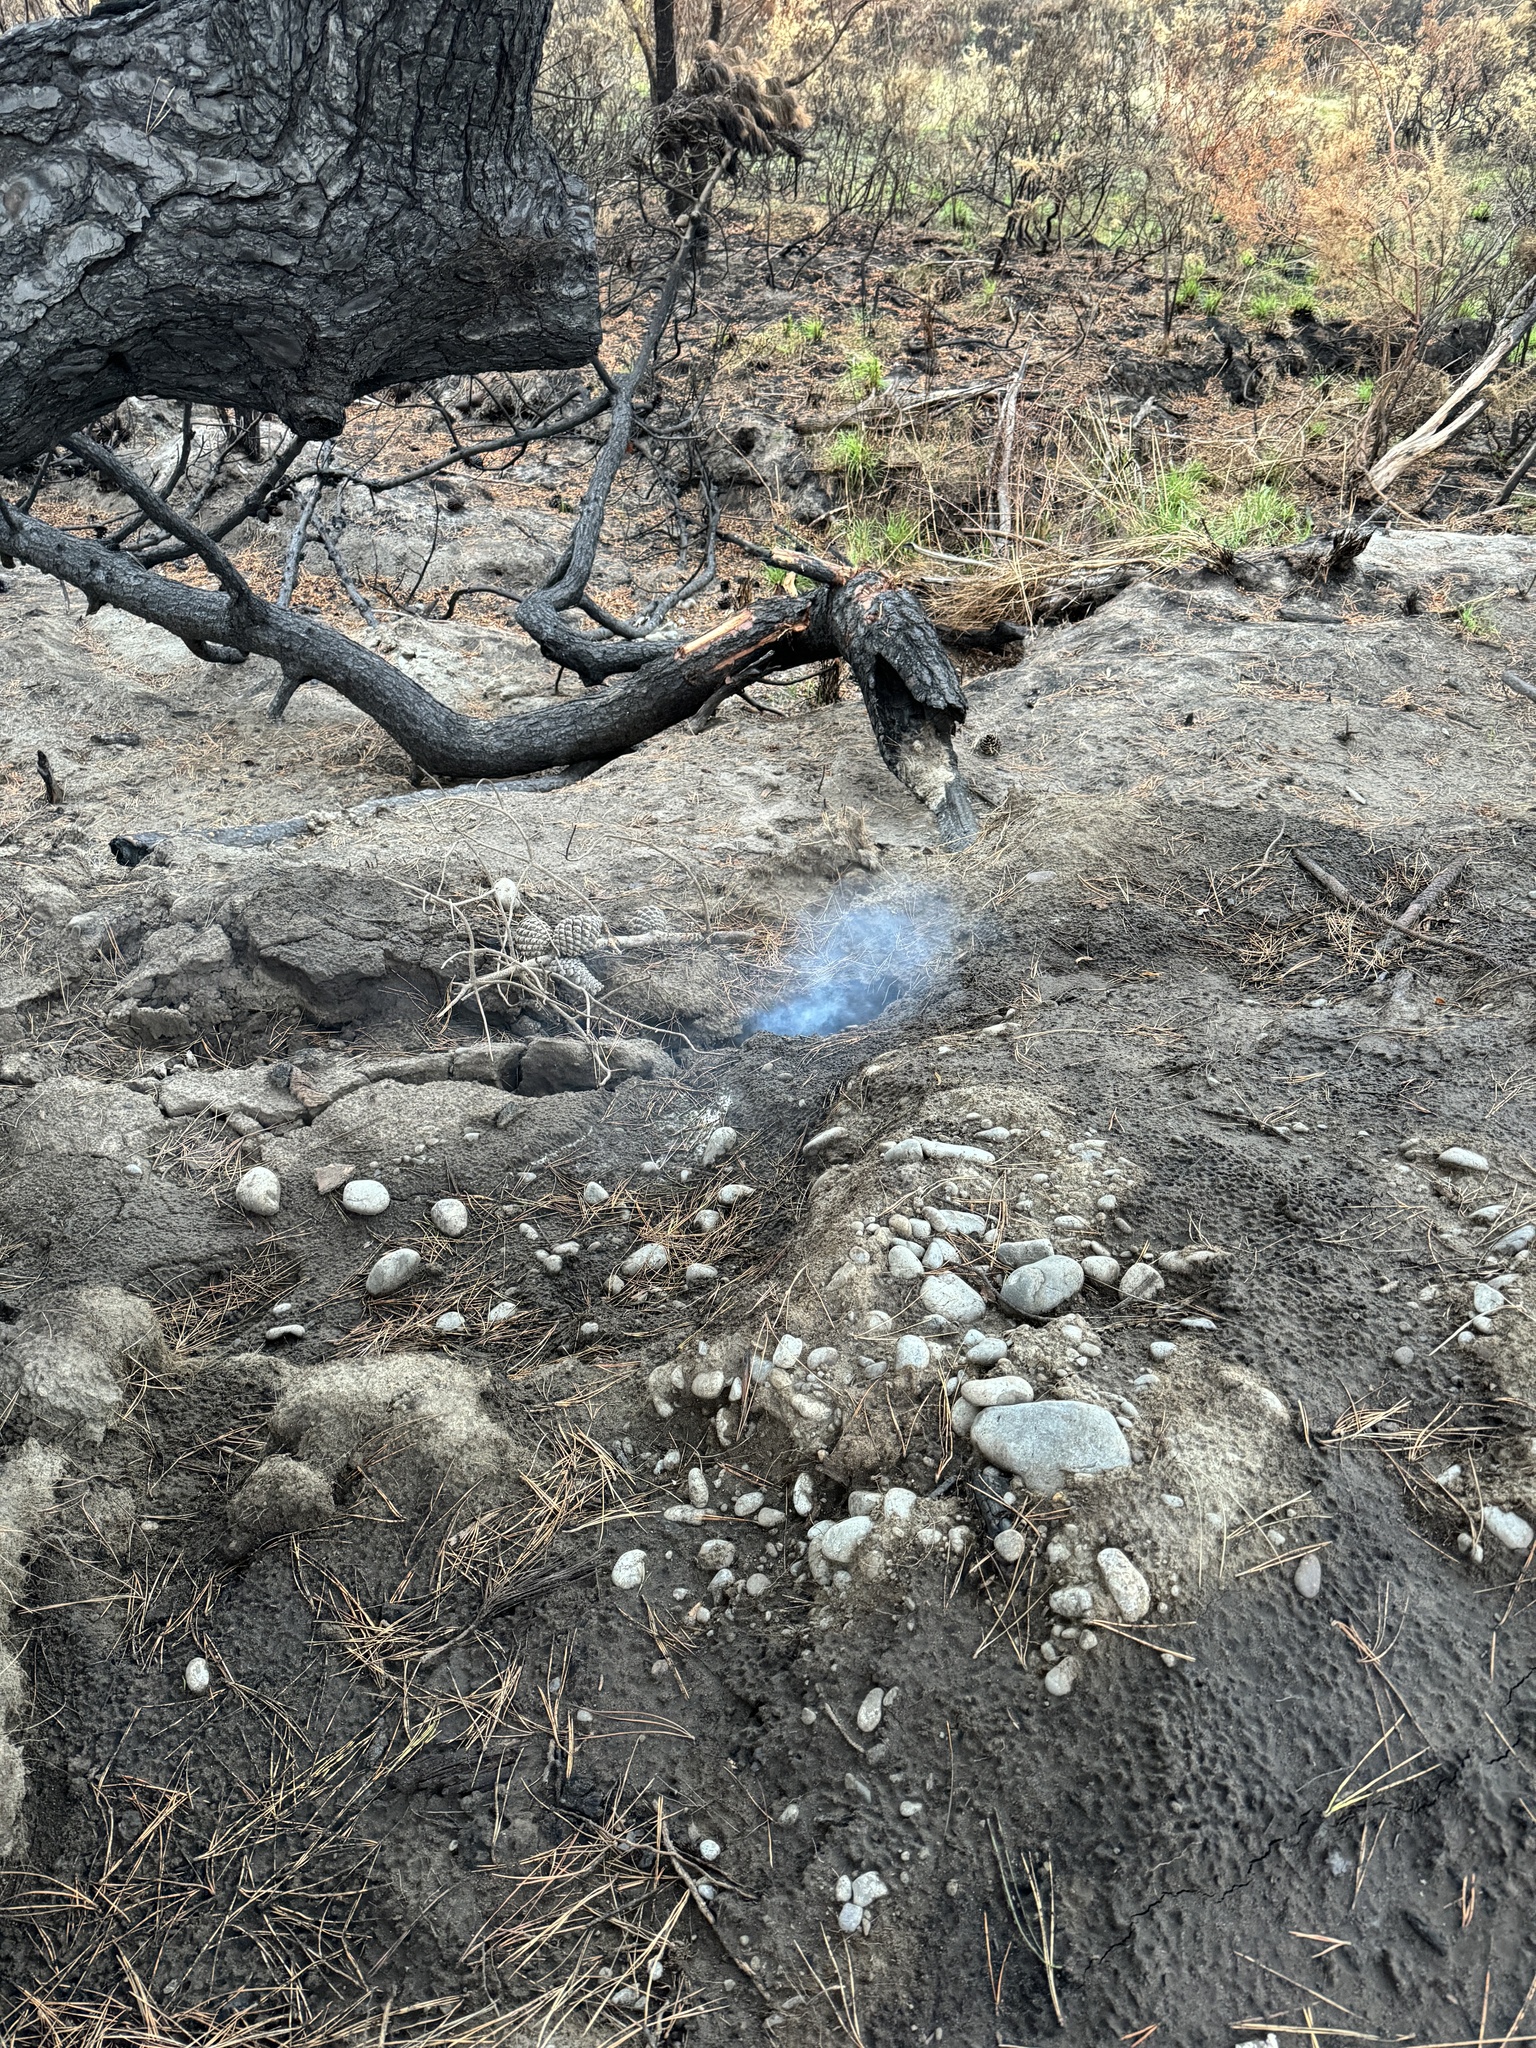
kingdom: Plantae
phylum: Tracheophyta
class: Pinopsida
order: Pinales
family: Pinaceae
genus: Pinus
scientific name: Pinus radiata
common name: Monterey pine
